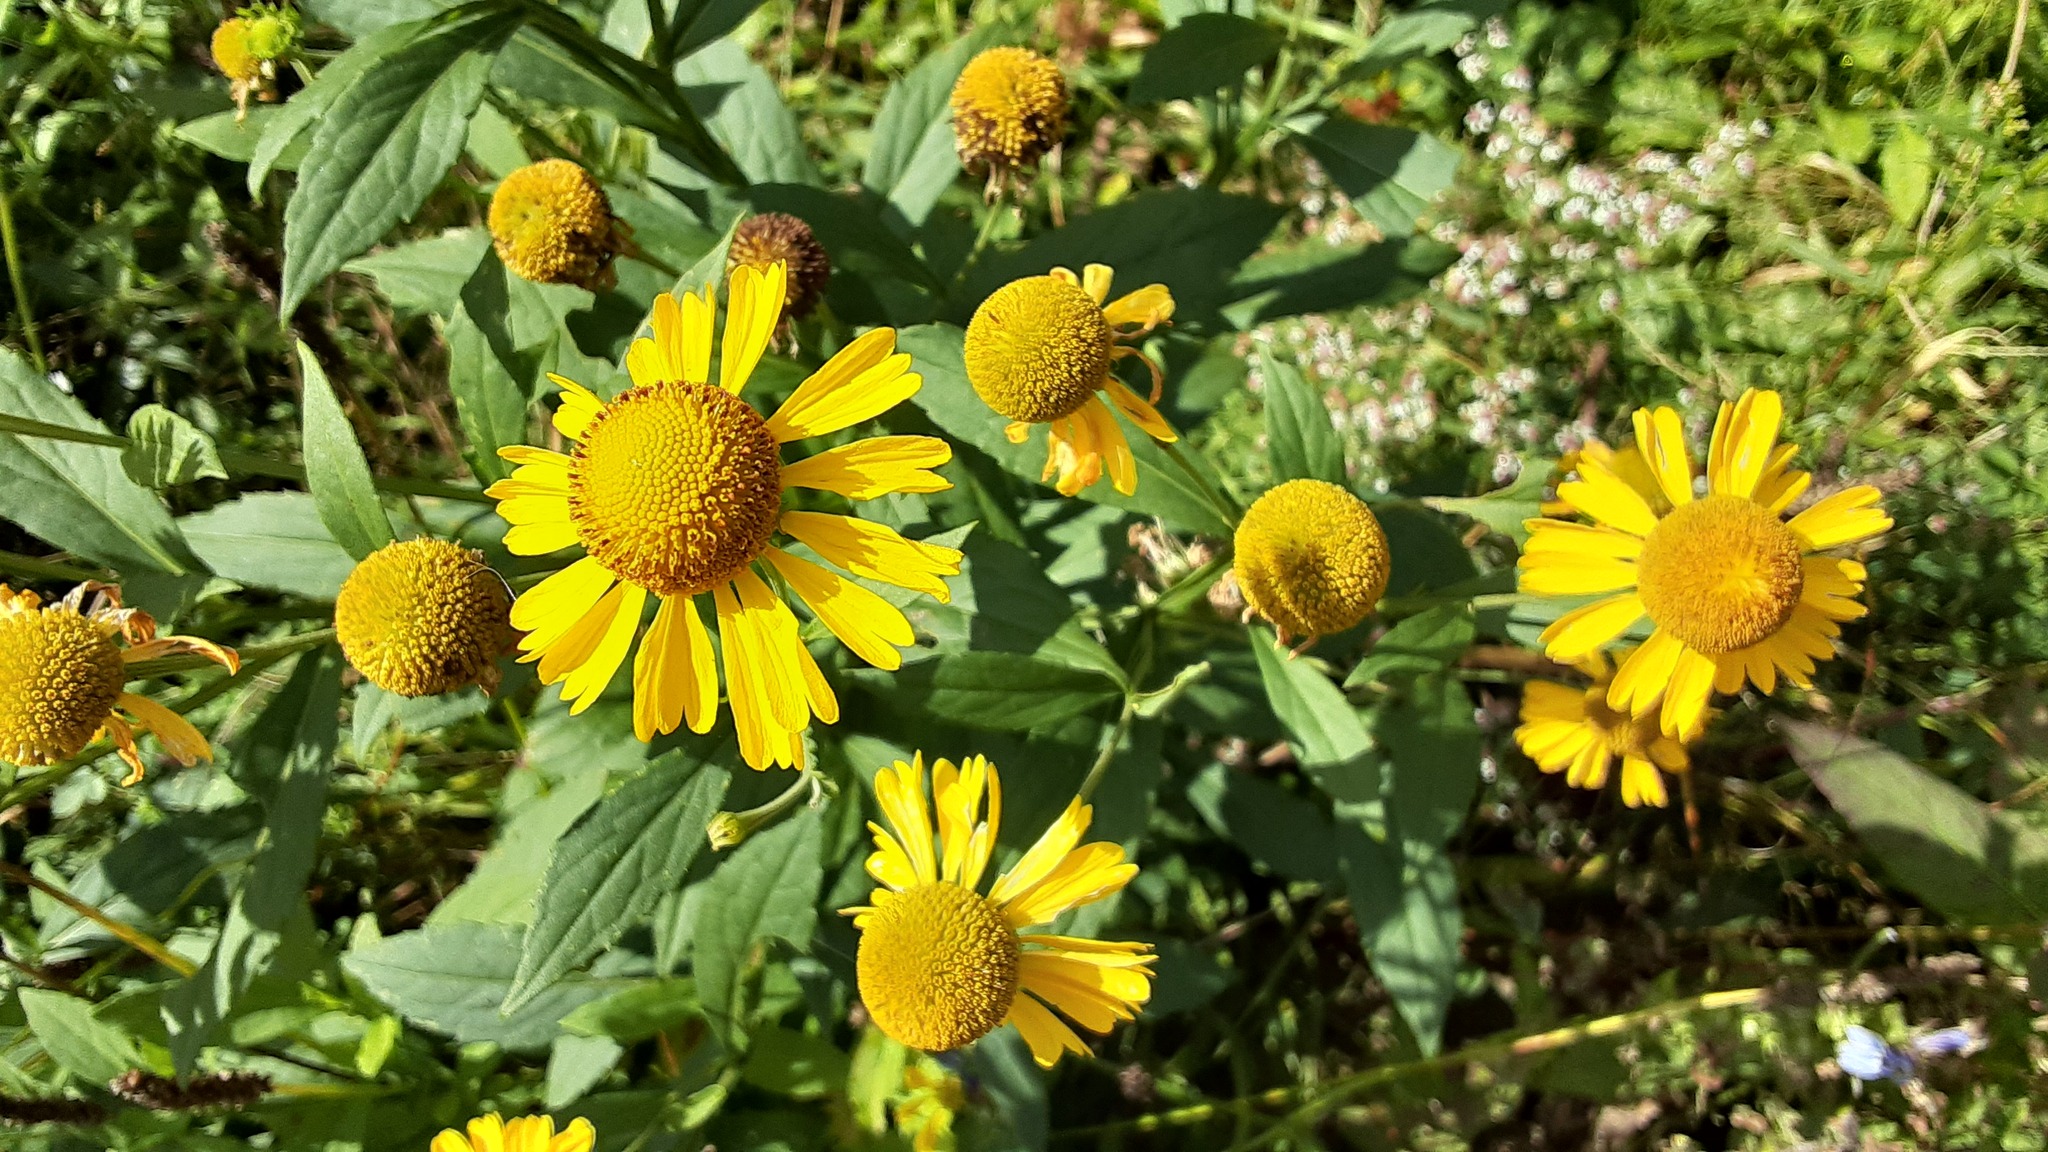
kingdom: Plantae
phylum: Tracheophyta
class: Magnoliopsida
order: Asterales
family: Asteraceae
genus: Helenium
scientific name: Helenium autumnale
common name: Sneezeweed
